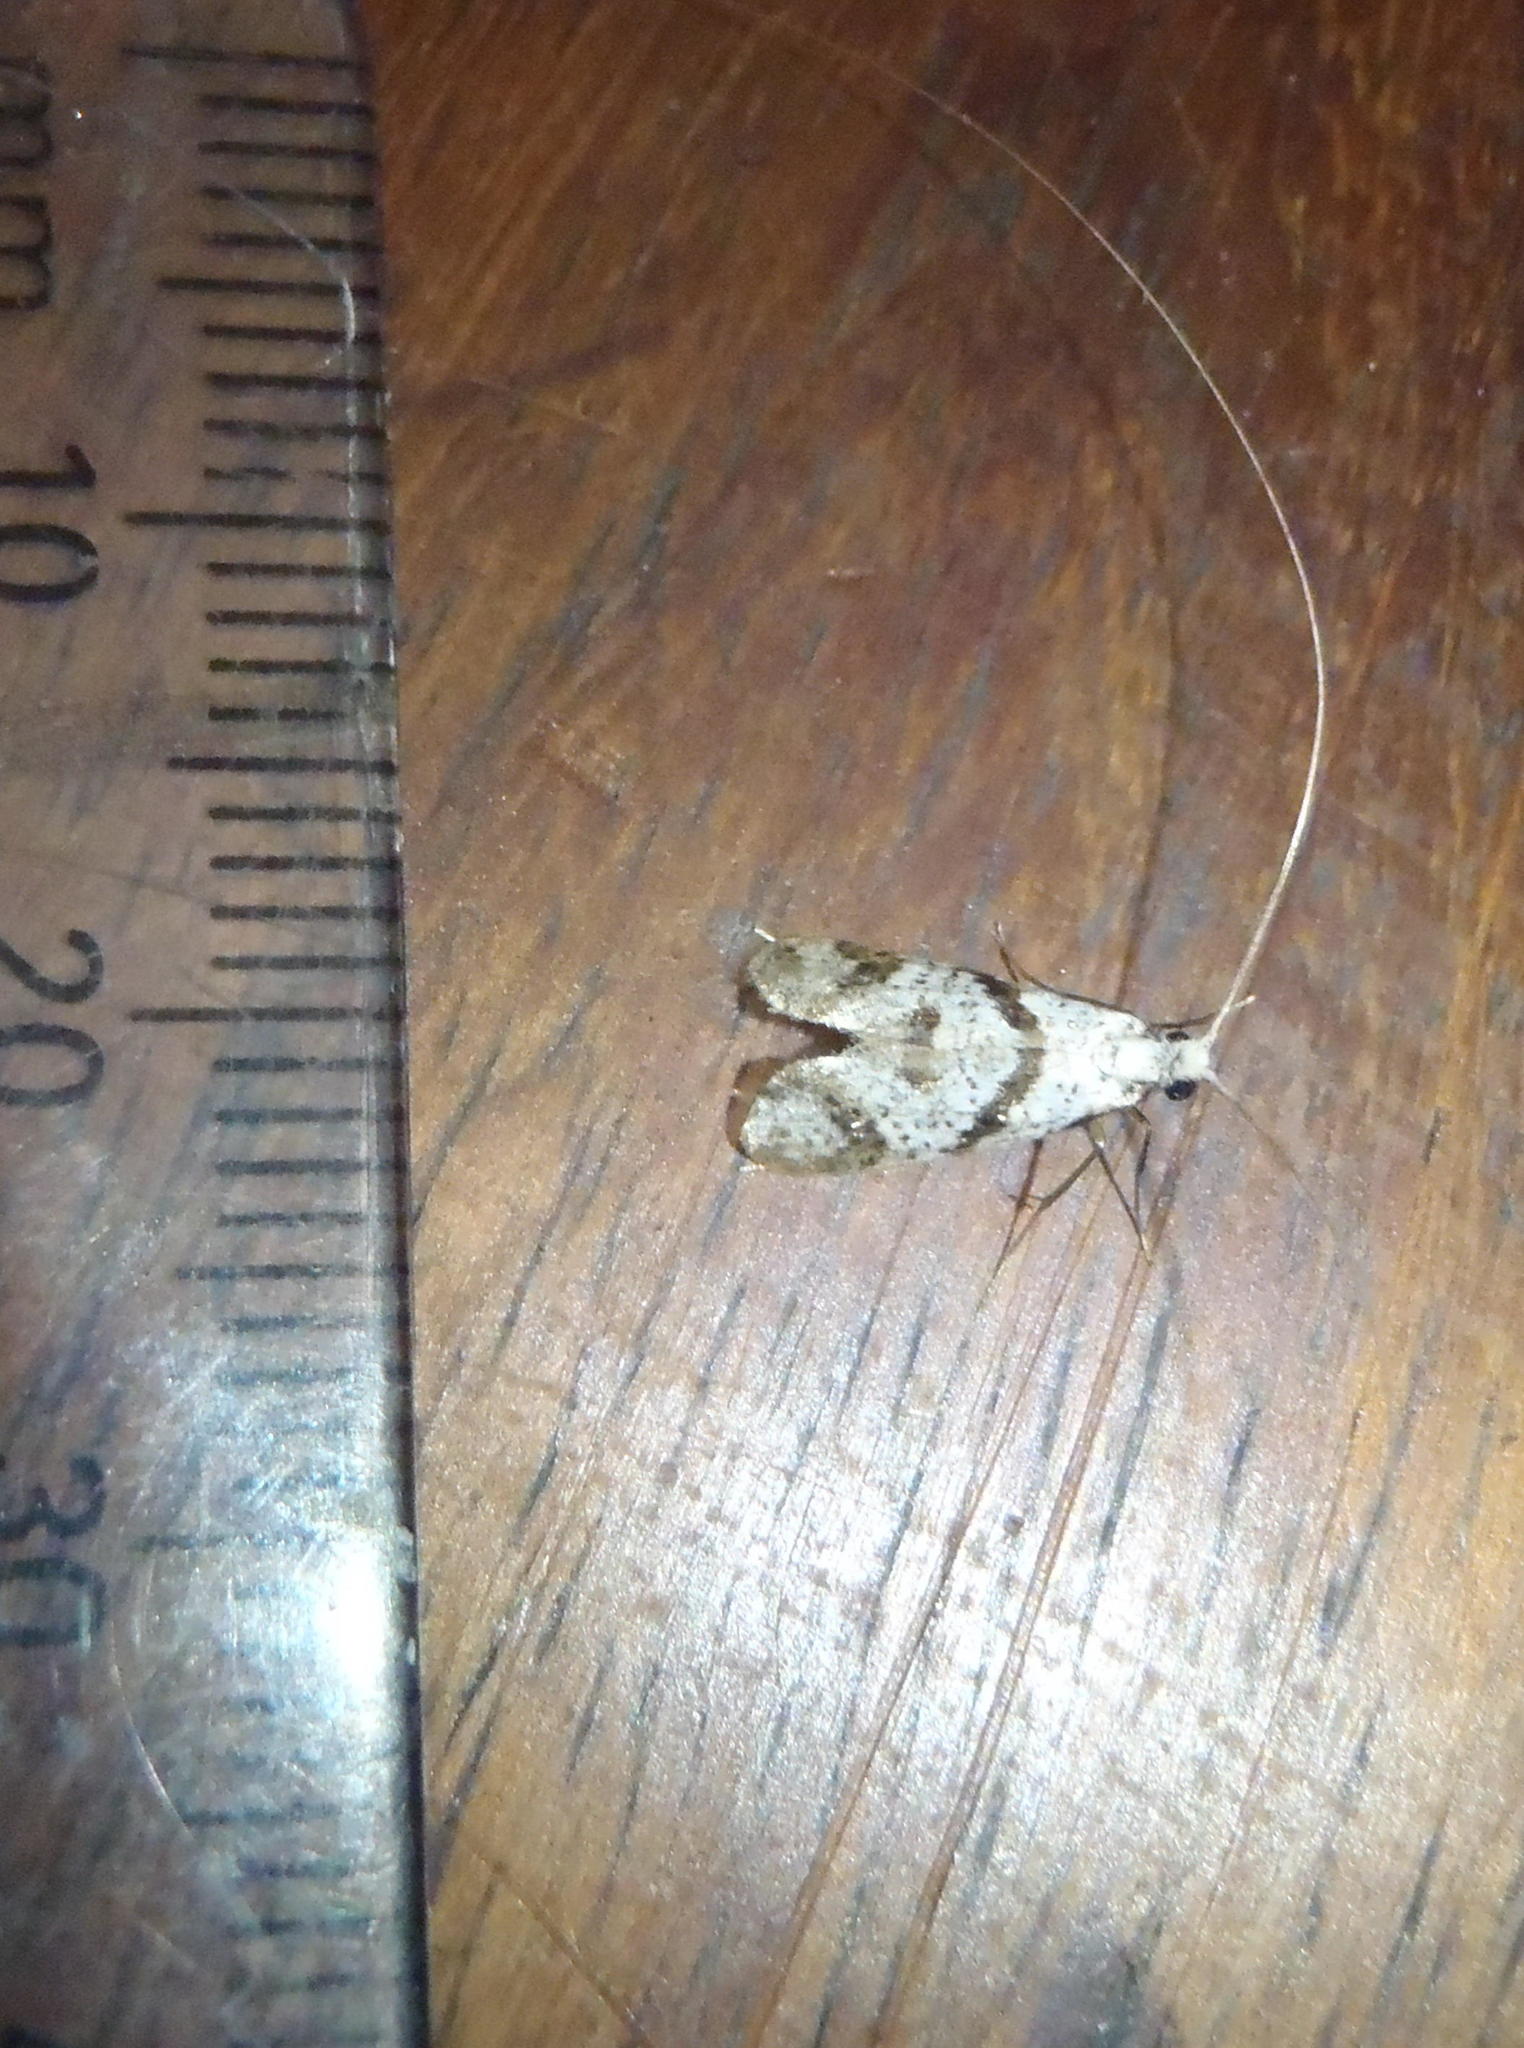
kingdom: Animalia
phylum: Arthropoda
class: Insecta
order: Lepidoptera
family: Adelidae
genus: Ceromitia
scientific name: Ceromitia wahlbergi
